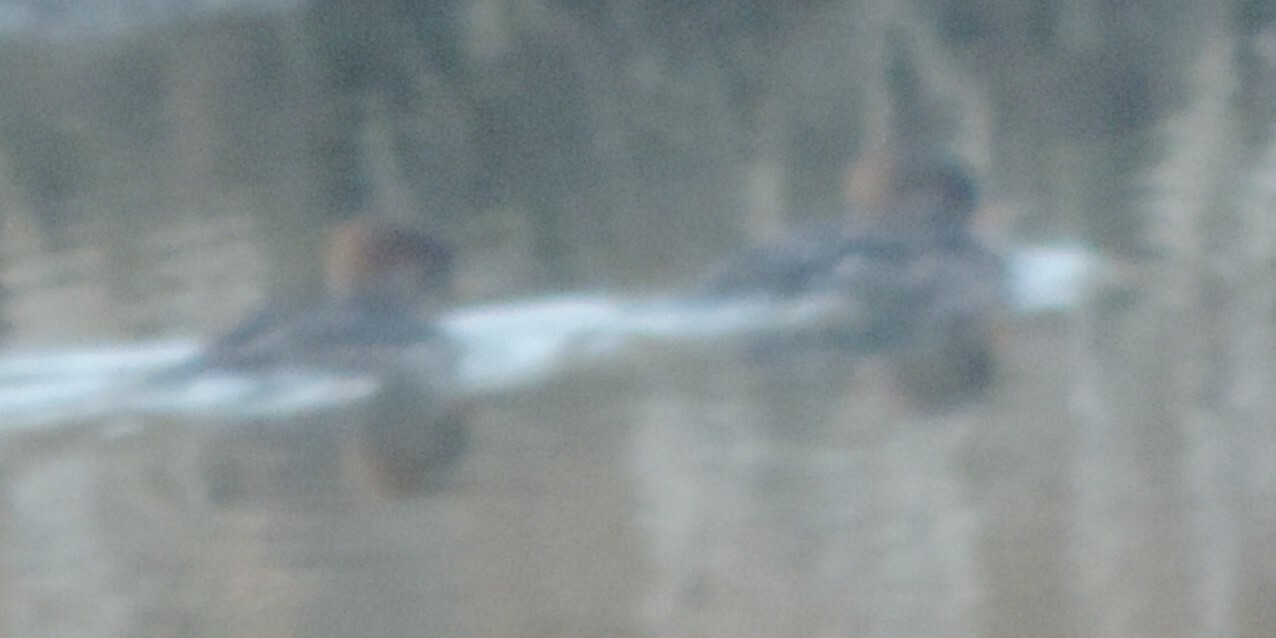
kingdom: Animalia
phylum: Chordata
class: Aves
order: Anseriformes
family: Anatidae
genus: Lophodytes
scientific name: Lophodytes cucullatus
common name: Hooded merganser
